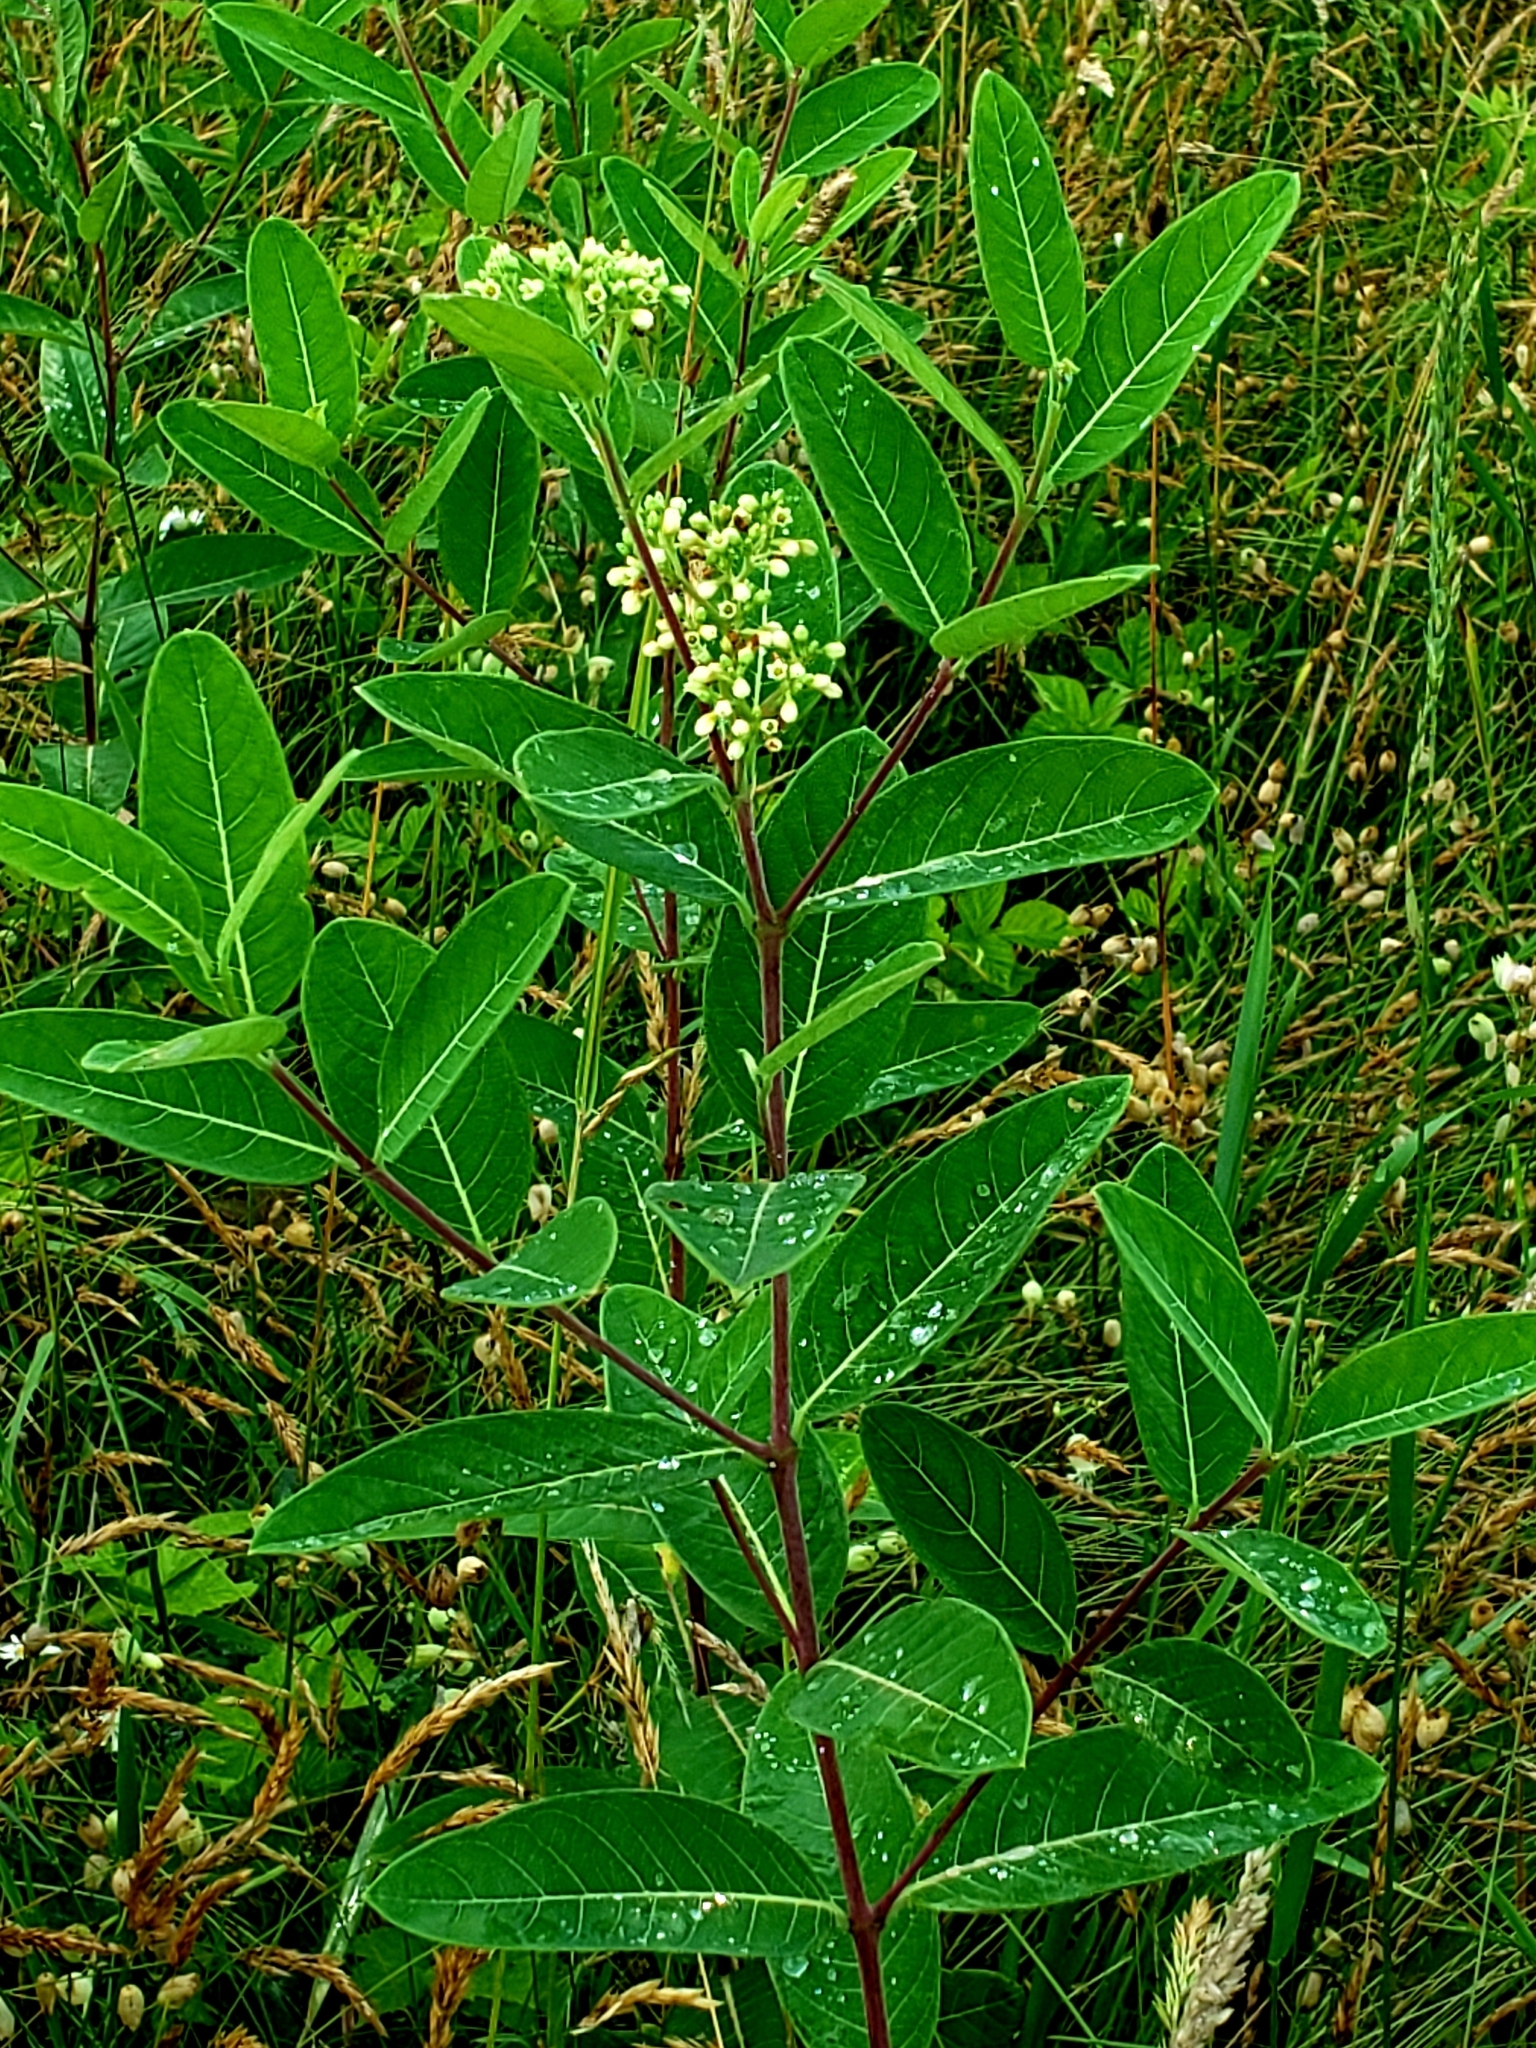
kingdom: Plantae
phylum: Tracheophyta
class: Magnoliopsida
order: Gentianales
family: Apocynaceae
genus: Apocynum
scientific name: Apocynum cannabinum
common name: Hemp dogbane
